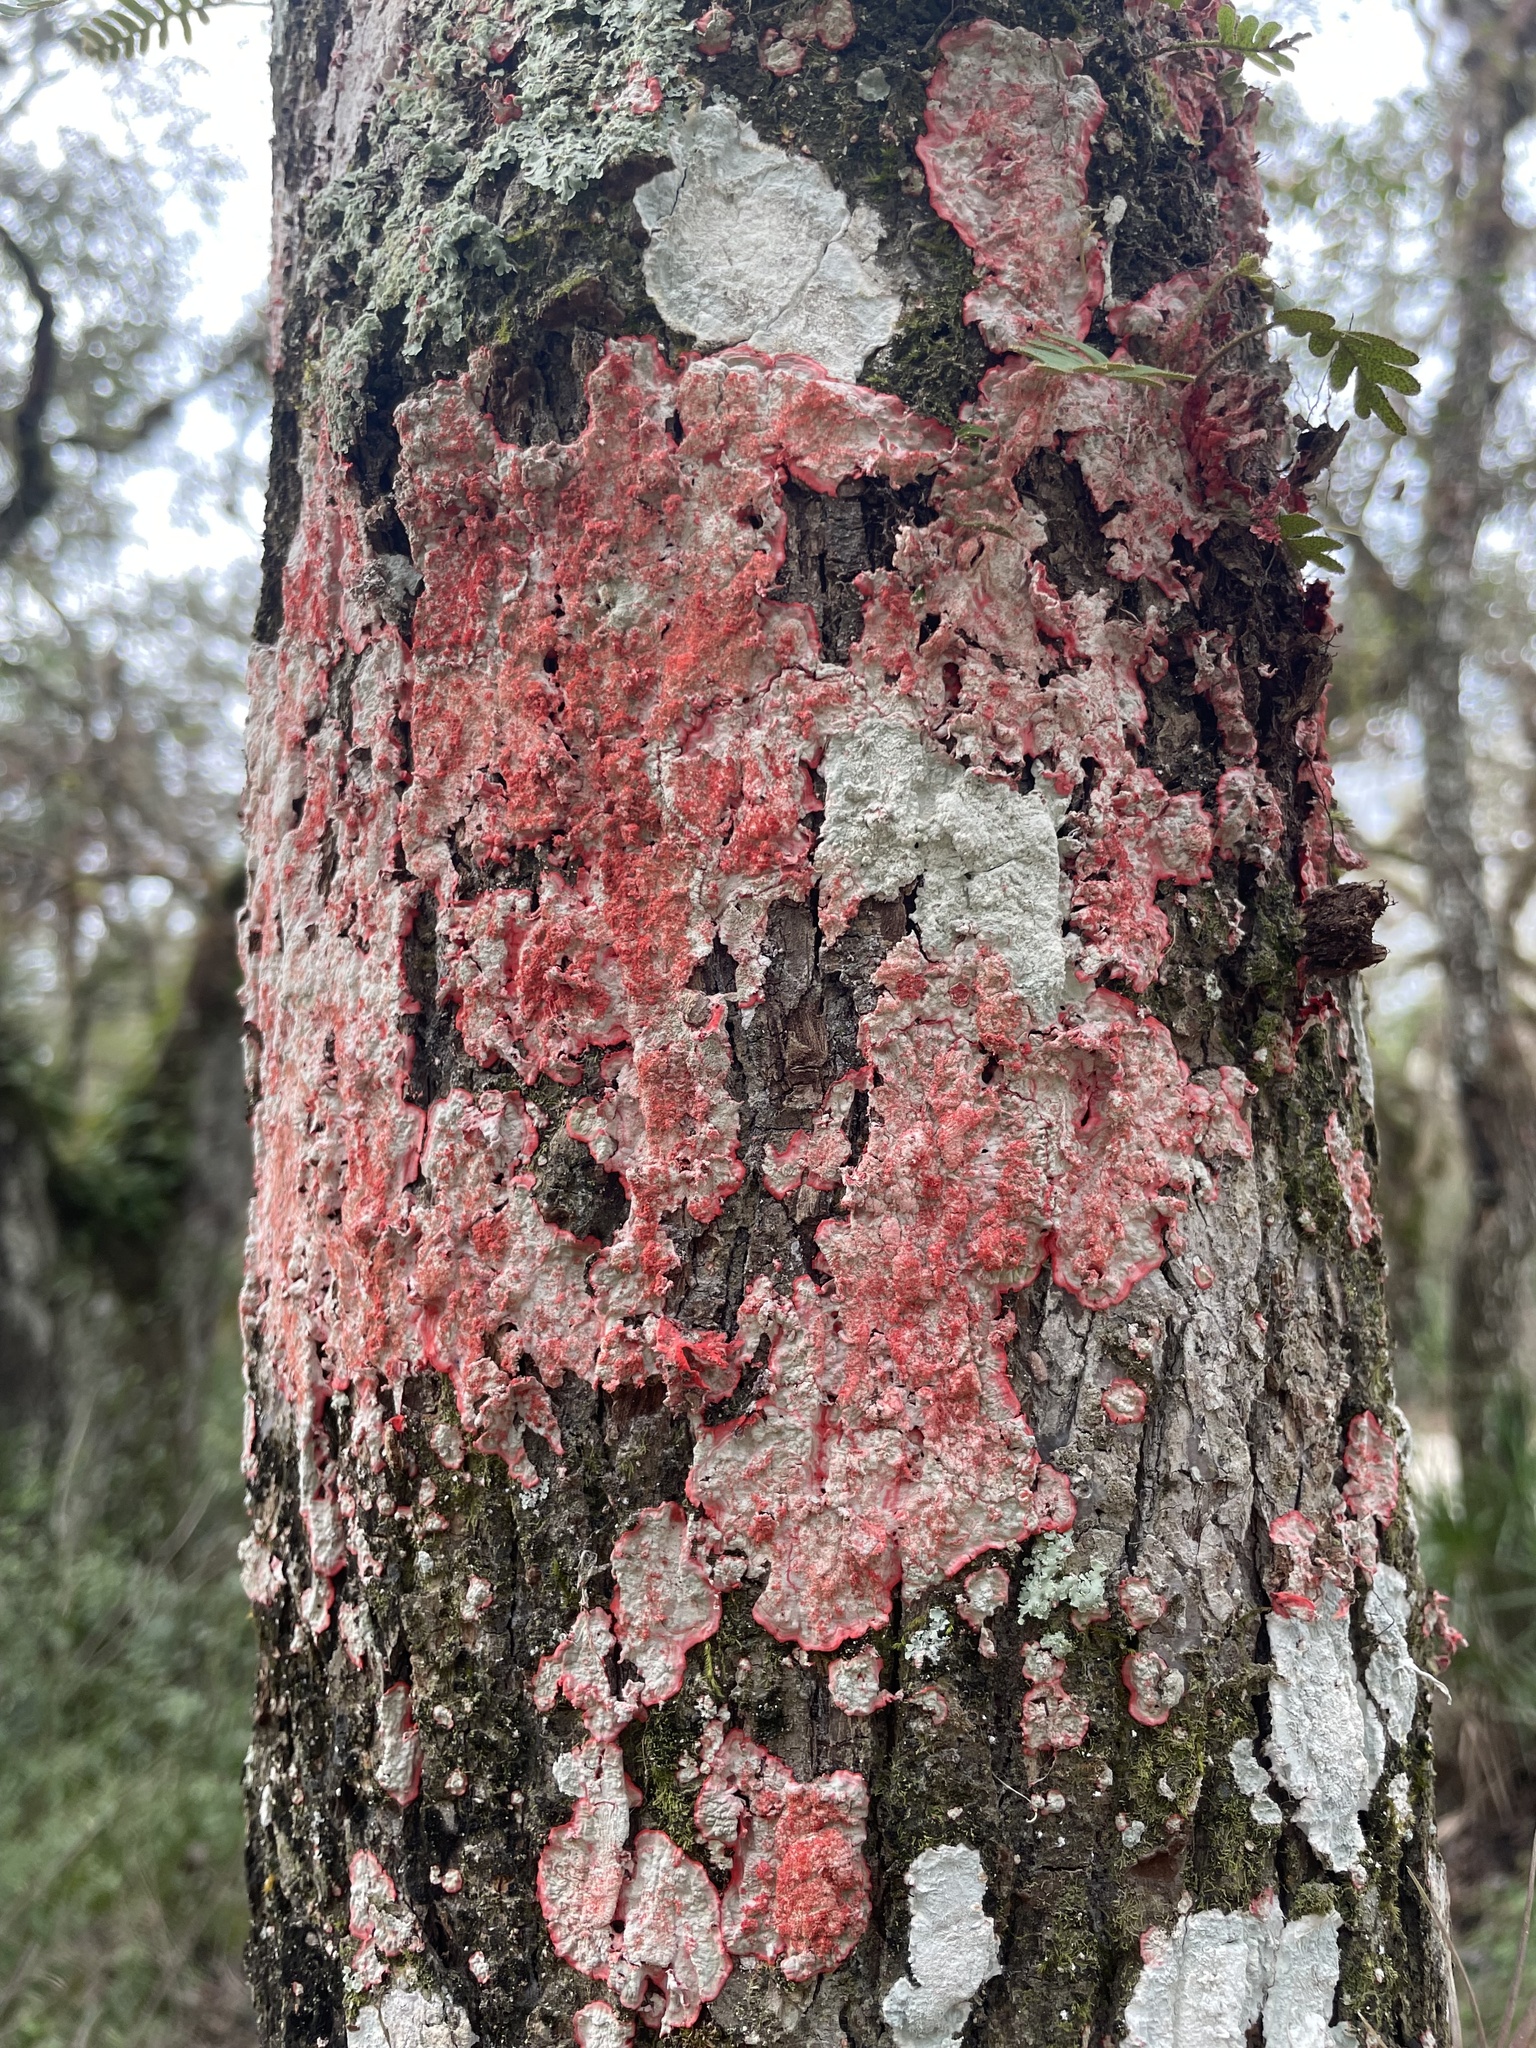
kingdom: Fungi
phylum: Ascomycota
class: Arthoniomycetes
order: Arthoniales
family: Arthoniaceae
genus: Herpothallon
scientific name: Herpothallon rubrocinctum
